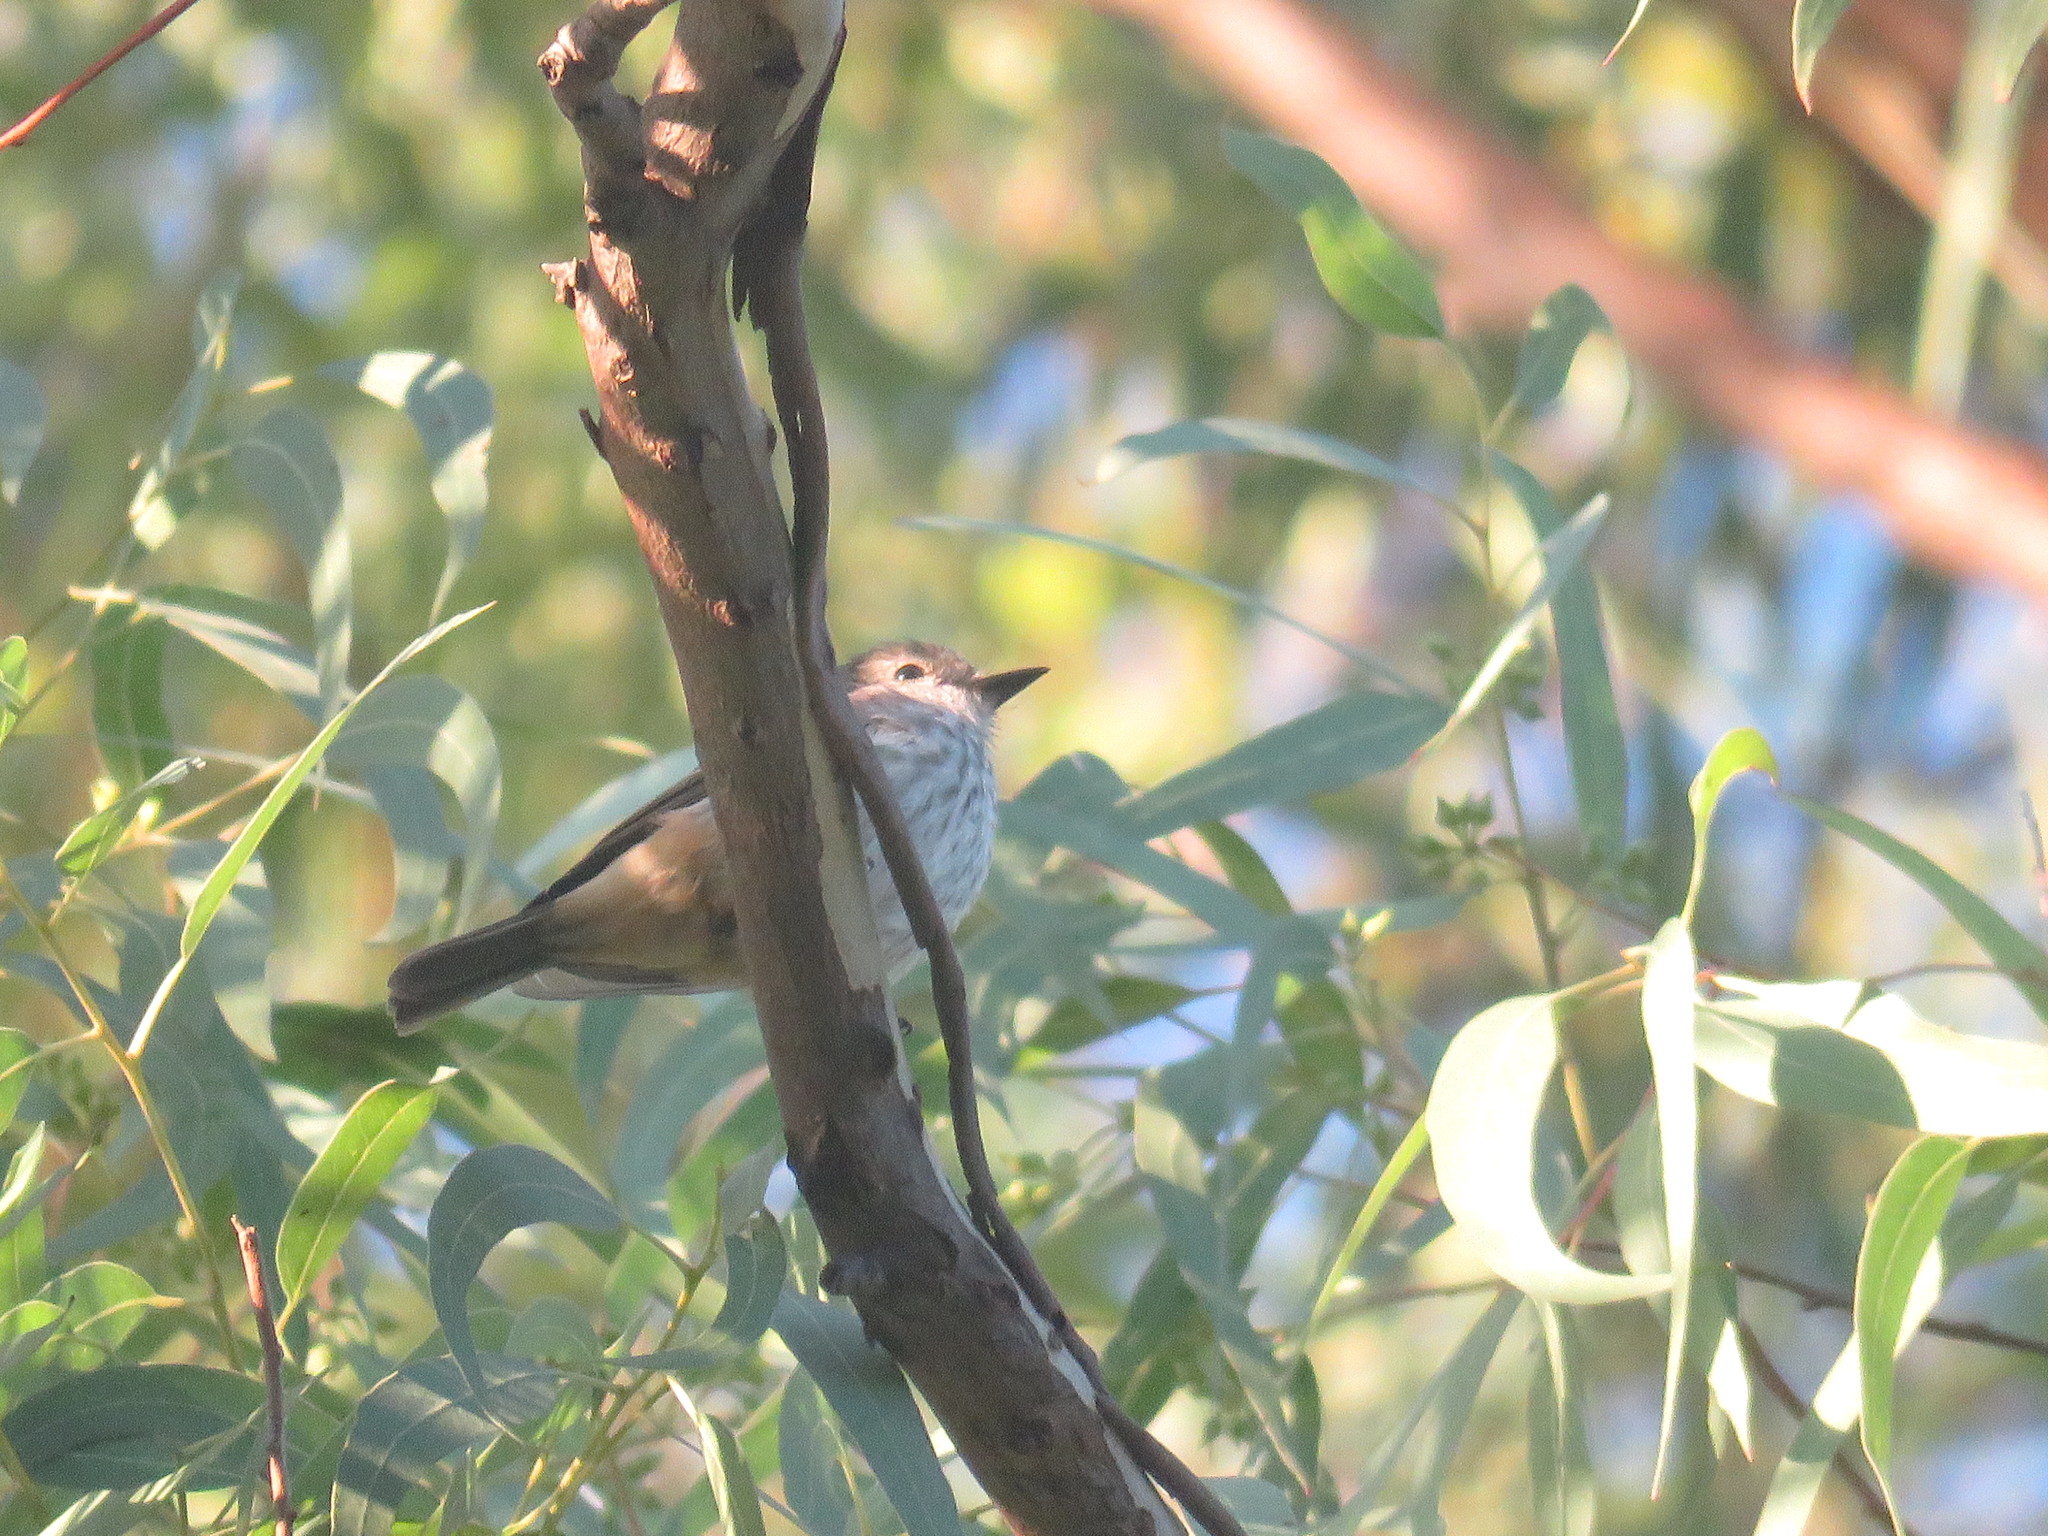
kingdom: Animalia
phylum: Chordata
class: Aves
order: Passeriformes
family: Tyrannidae
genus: Pyrocephalus
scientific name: Pyrocephalus rubinus
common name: Vermilion flycatcher
